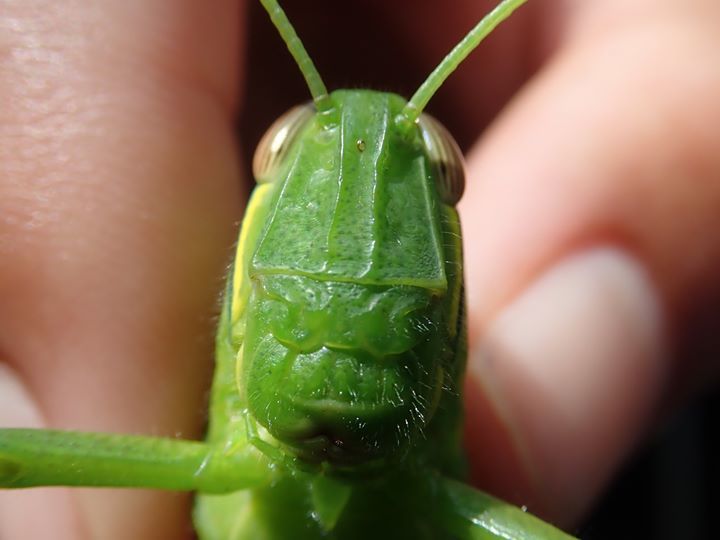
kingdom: Animalia
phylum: Arthropoda
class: Insecta
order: Orthoptera
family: Acrididae
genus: Chondracris
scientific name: Chondracris rosea
